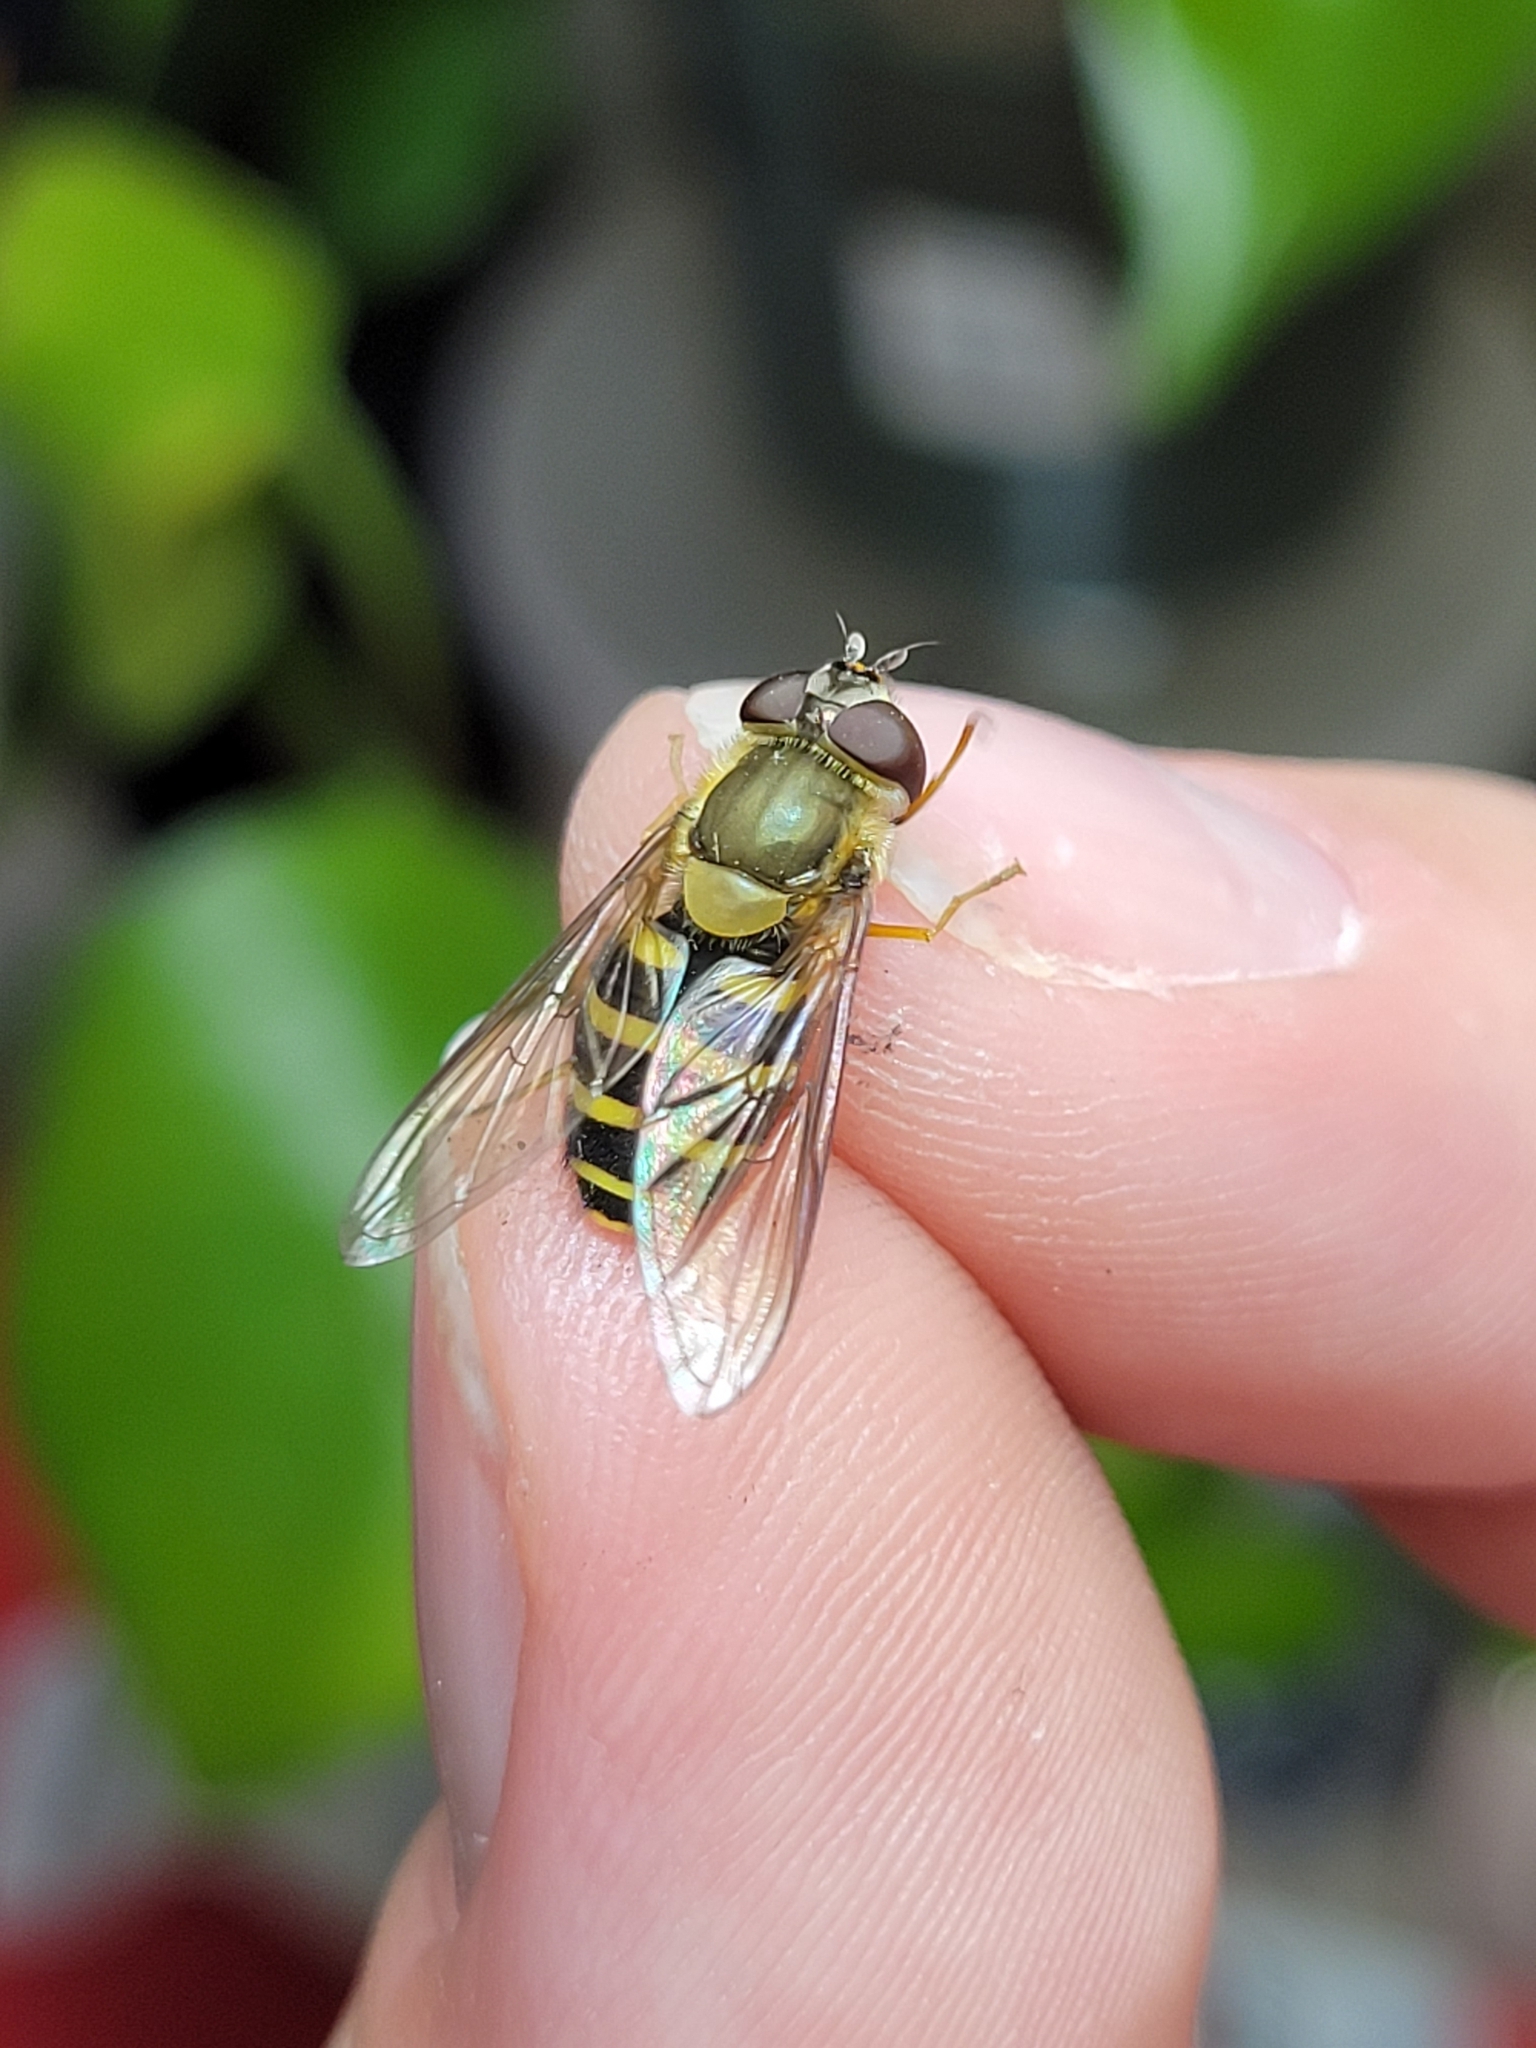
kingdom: Animalia
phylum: Arthropoda
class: Insecta
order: Diptera
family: Syrphidae
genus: Syrphus
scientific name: Syrphus
